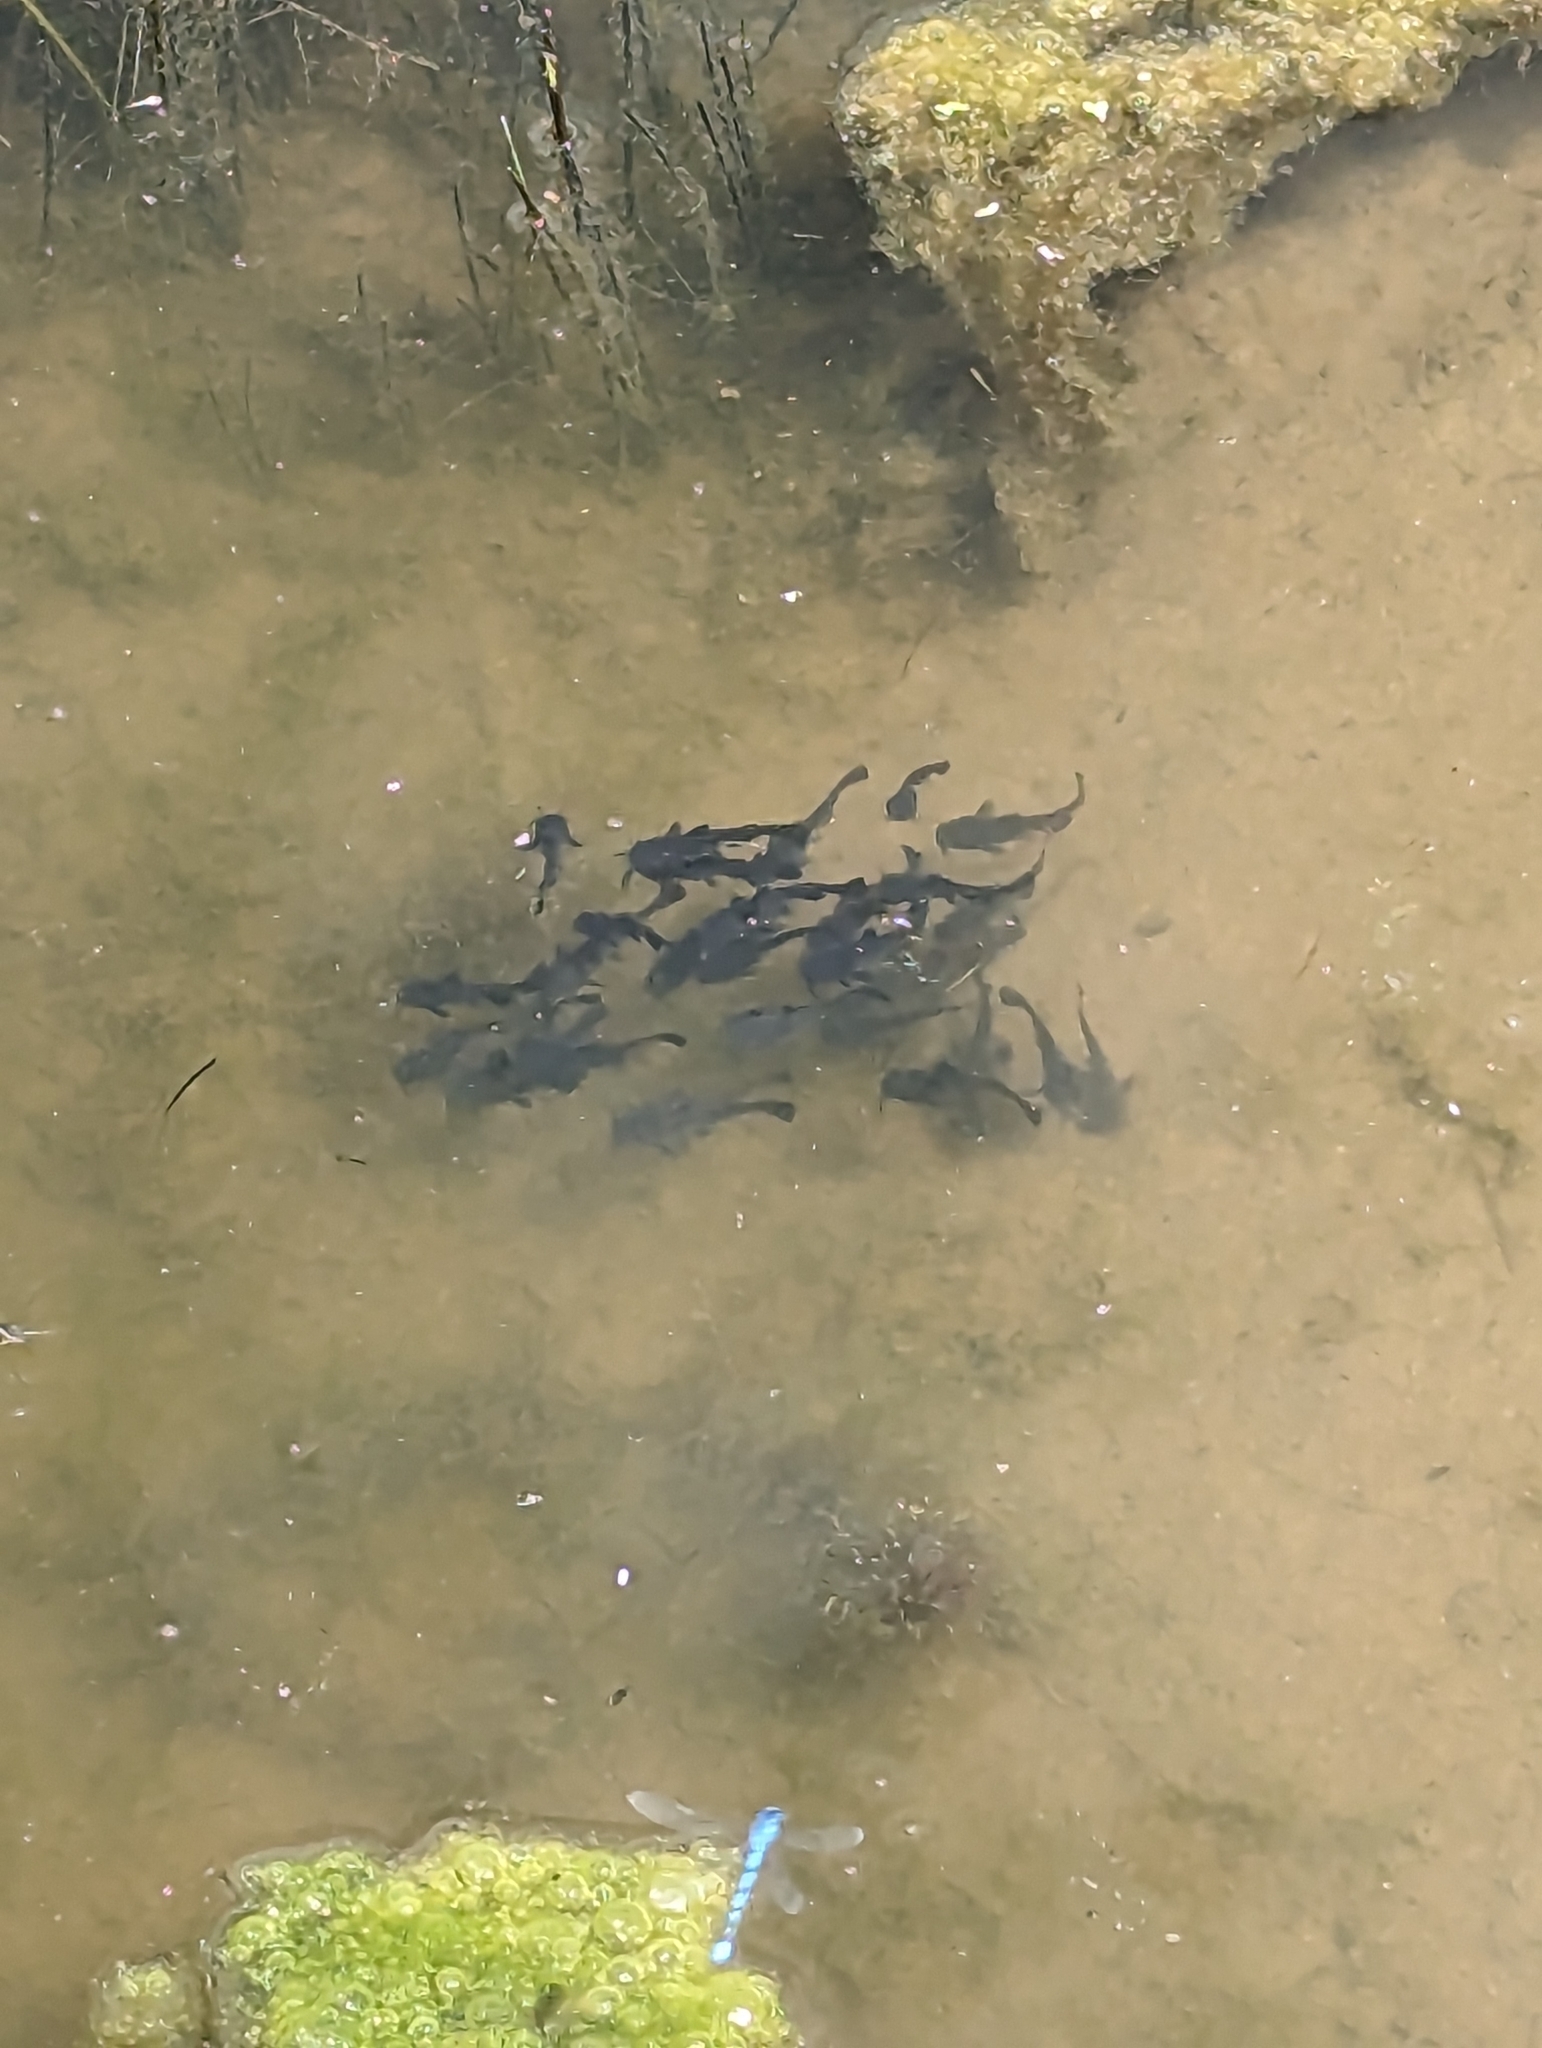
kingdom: Animalia
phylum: Chordata
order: Siluriformes
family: Ictaluridae
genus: Ameiurus
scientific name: Ameiurus melas
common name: Black bullhead
